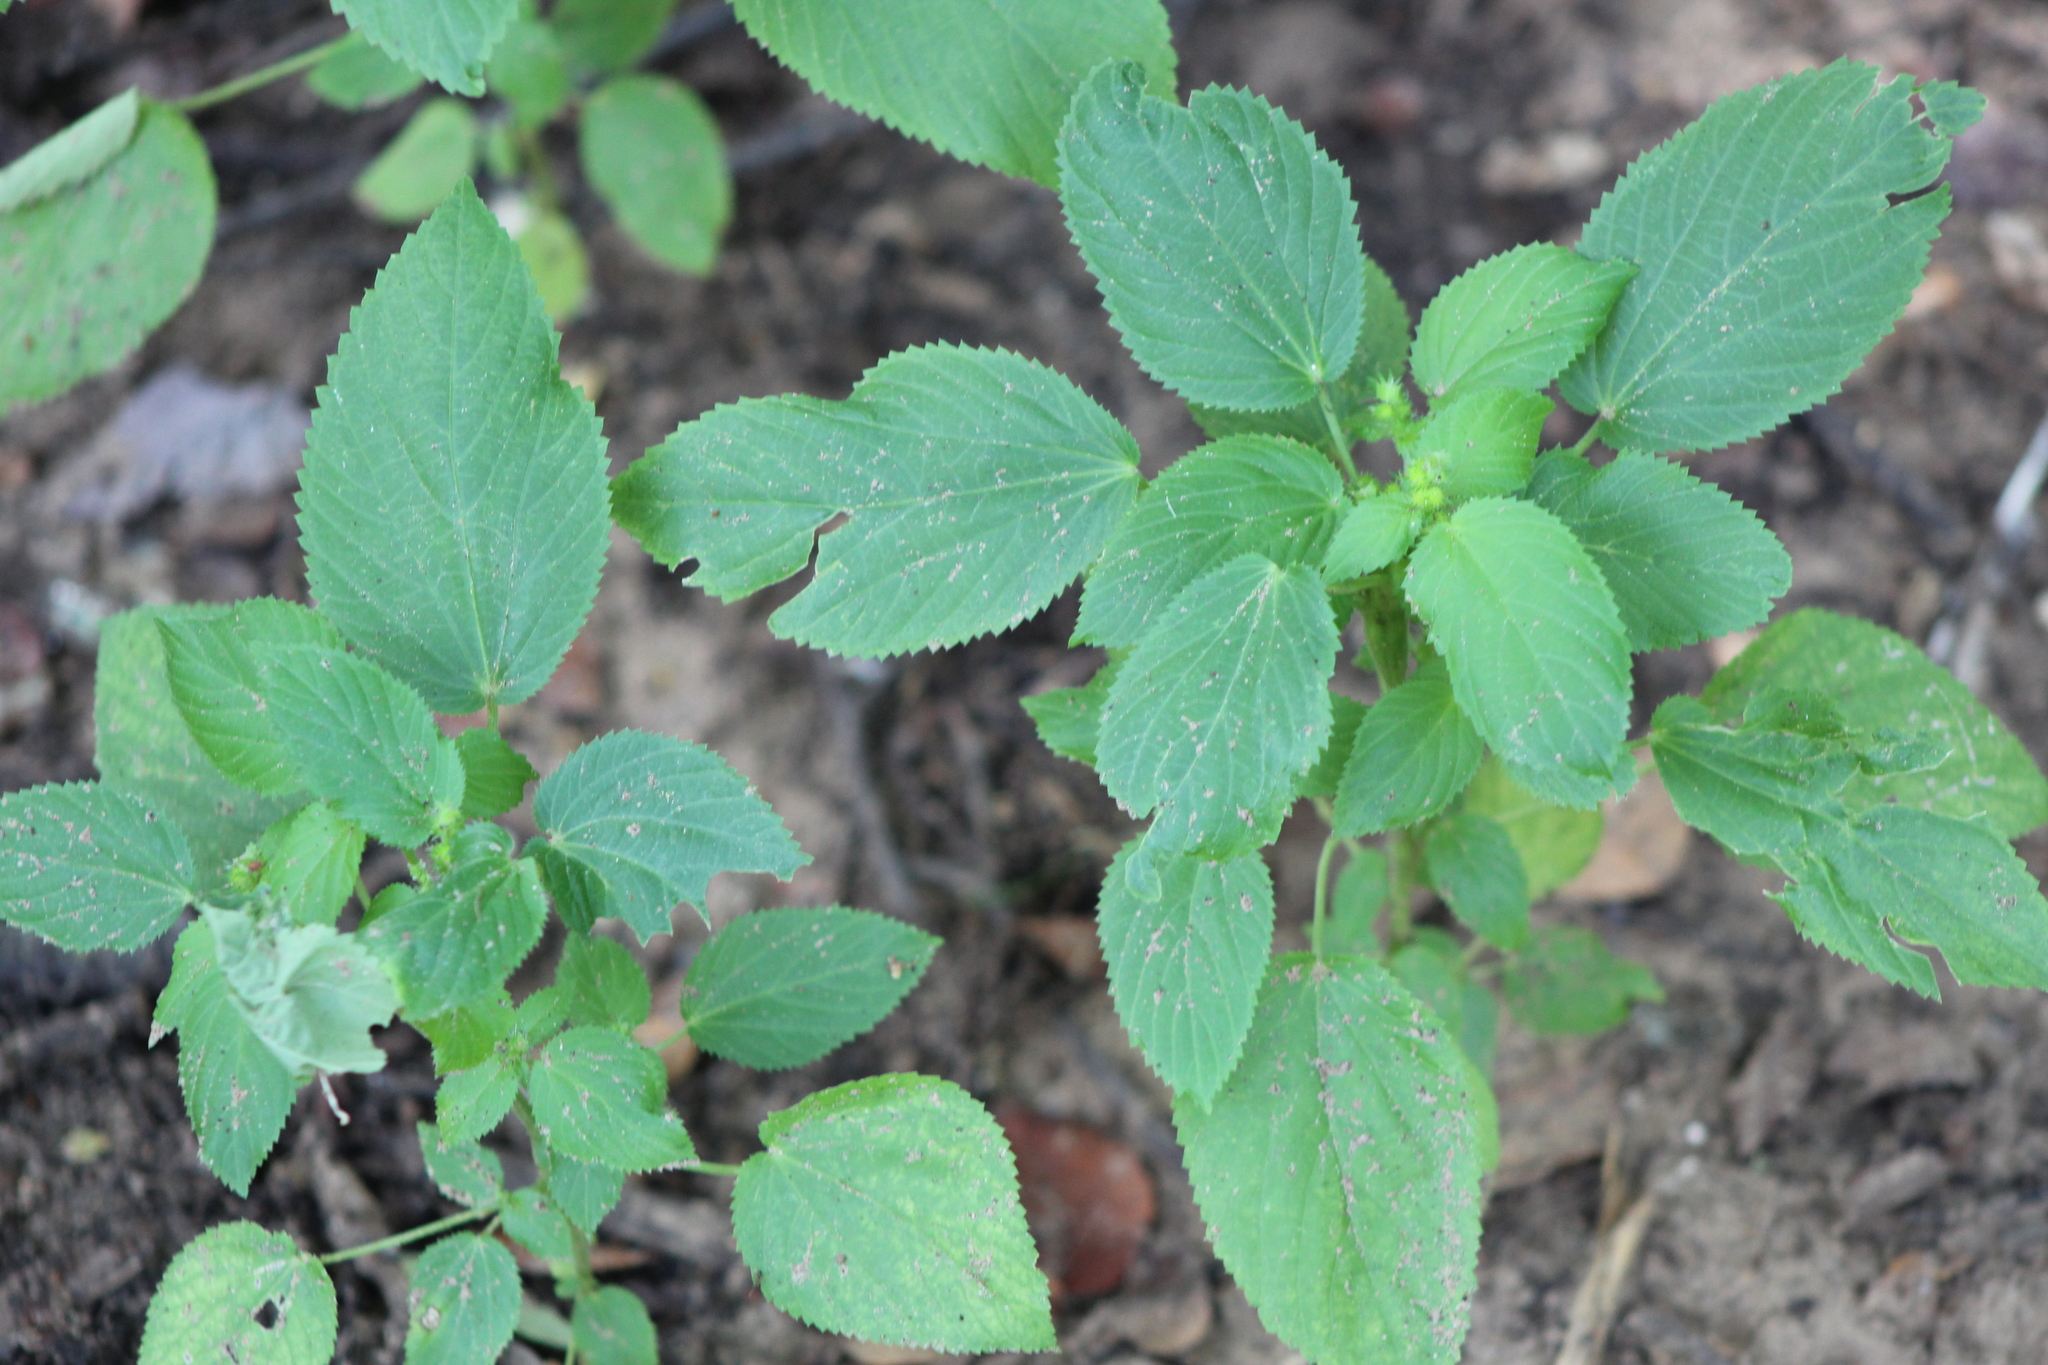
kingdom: Plantae
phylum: Tracheophyta
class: Magnoliopsida
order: Malpighiales
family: Euphorbiaceae
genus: Acalypha
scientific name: Acalypha ostryifolia
